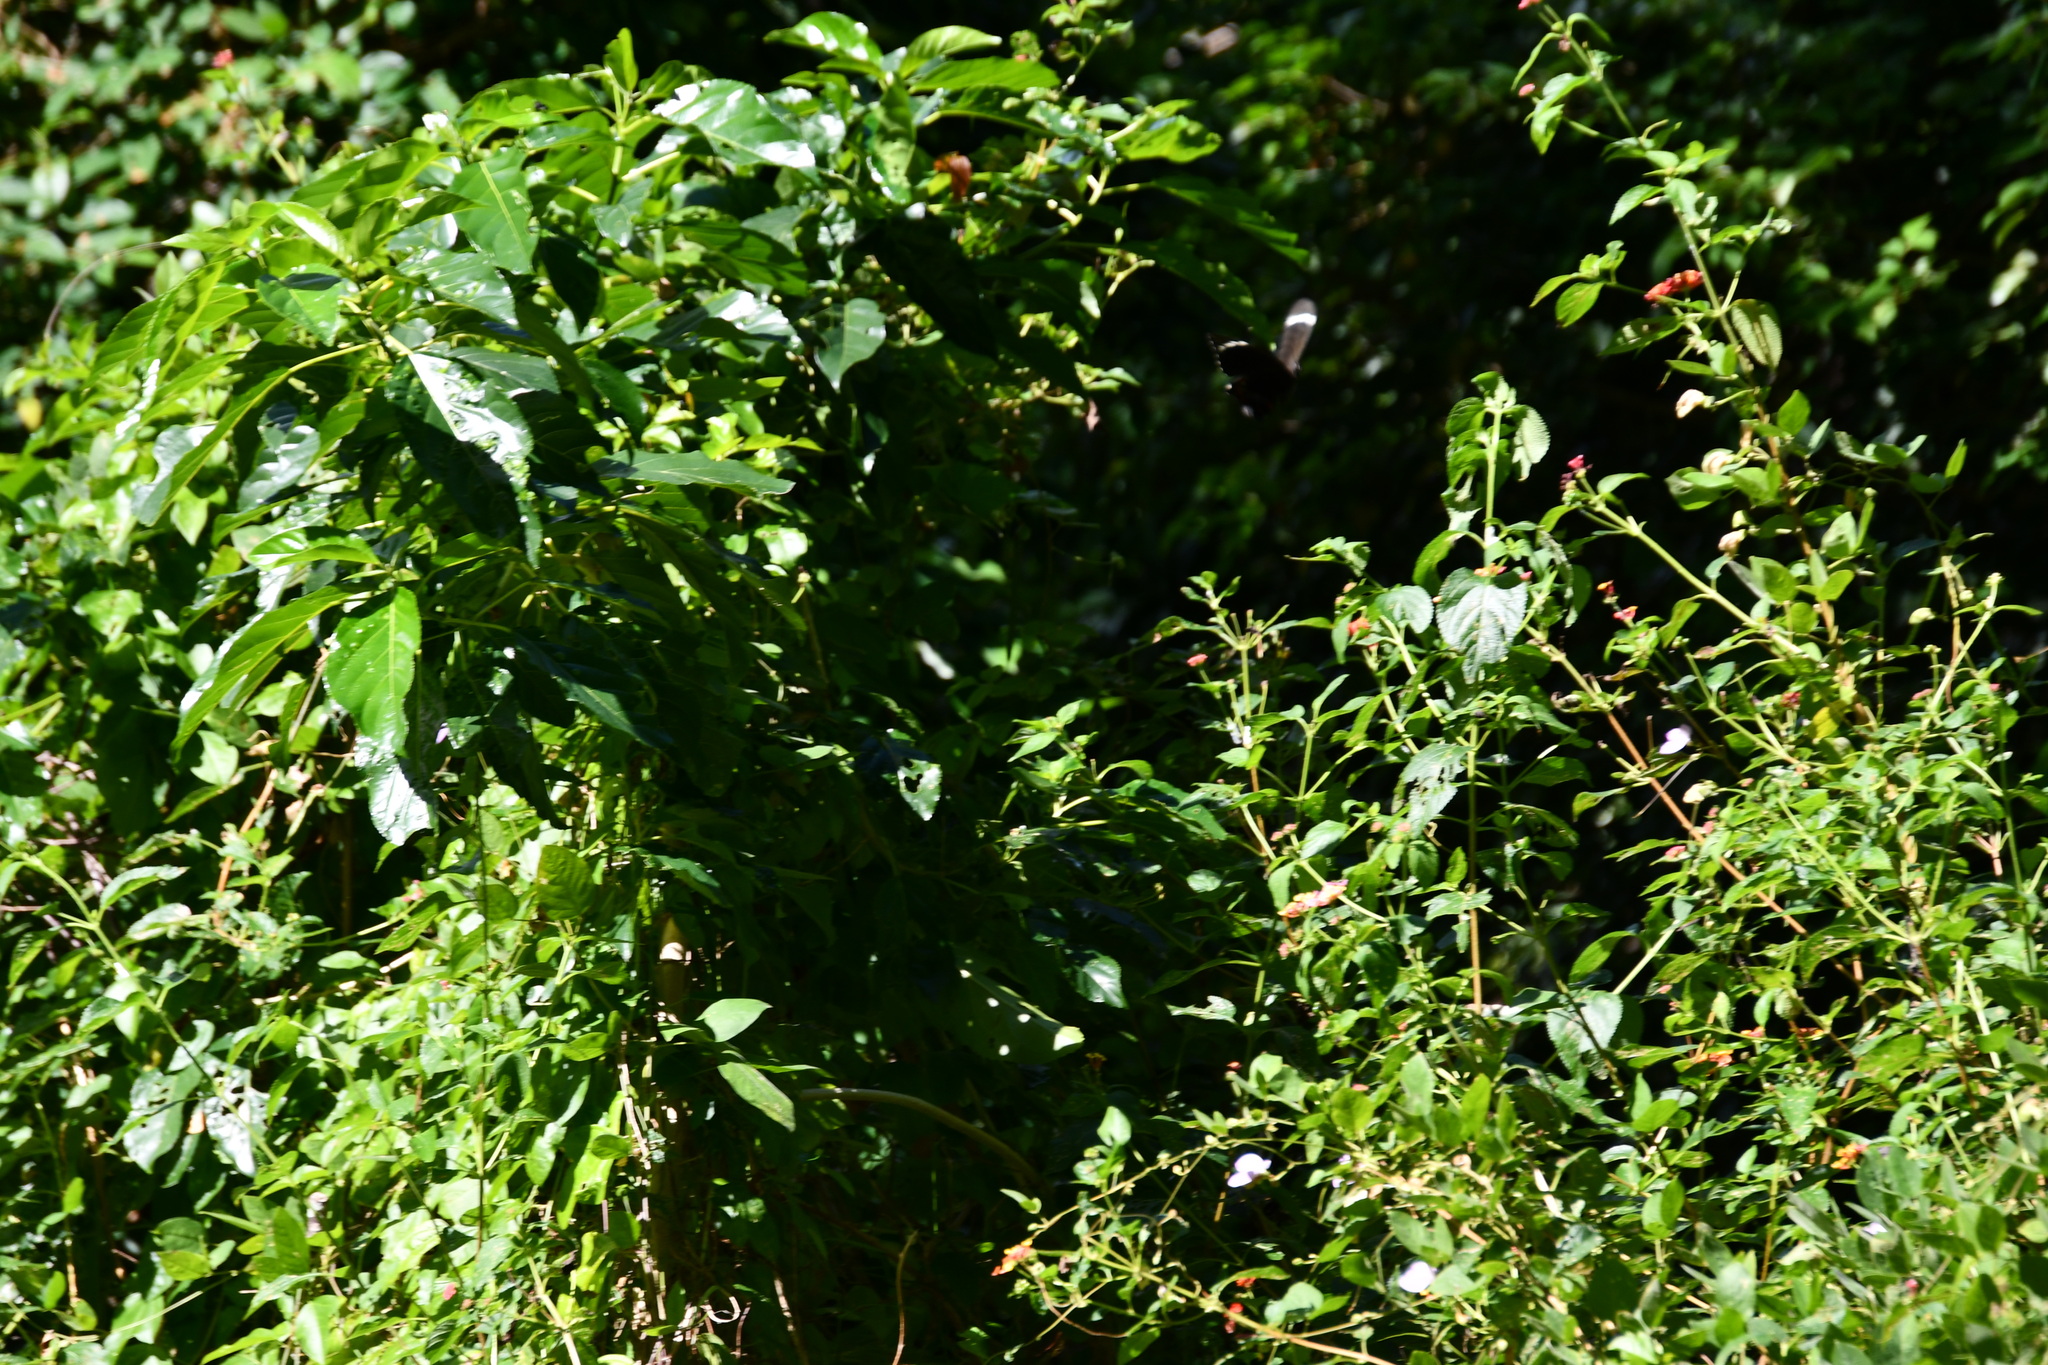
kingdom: Animalia
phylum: Arthropoda
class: Insecta
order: Lepidoptera
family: Papilionidae
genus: Papilio
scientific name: Papilio aegeus
